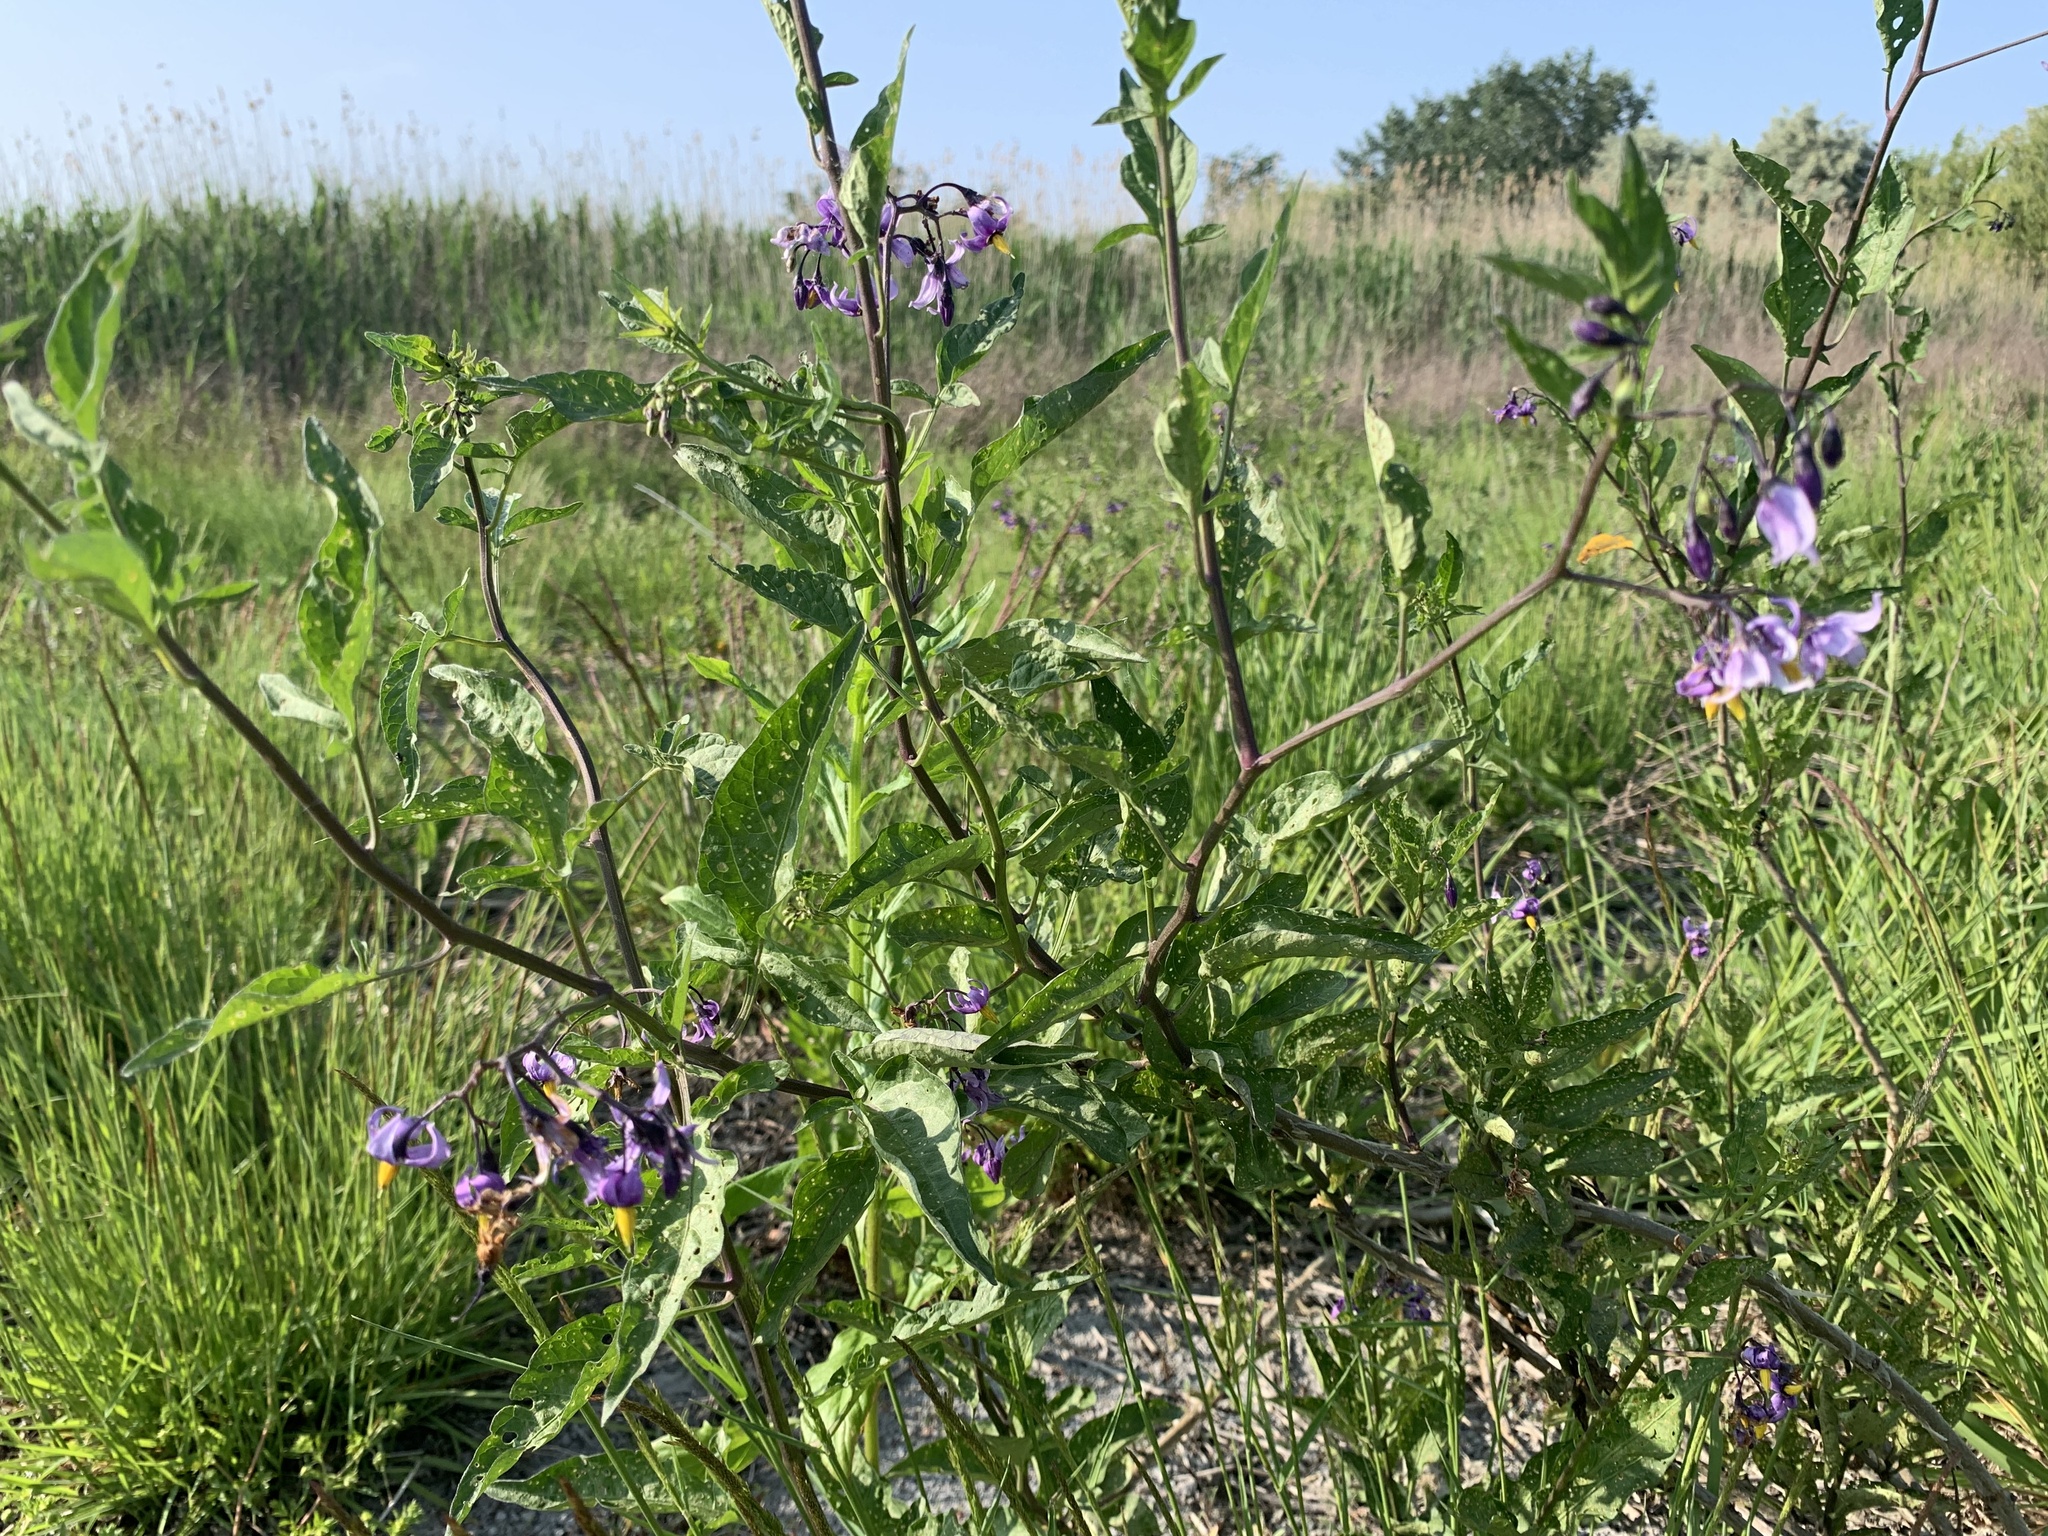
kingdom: Plantae
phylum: Tracheophyta
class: Magnoliopsida
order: Solanales
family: Solanaceae
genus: Solanum
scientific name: Solanum dulcamara
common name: Climbing nightshade
